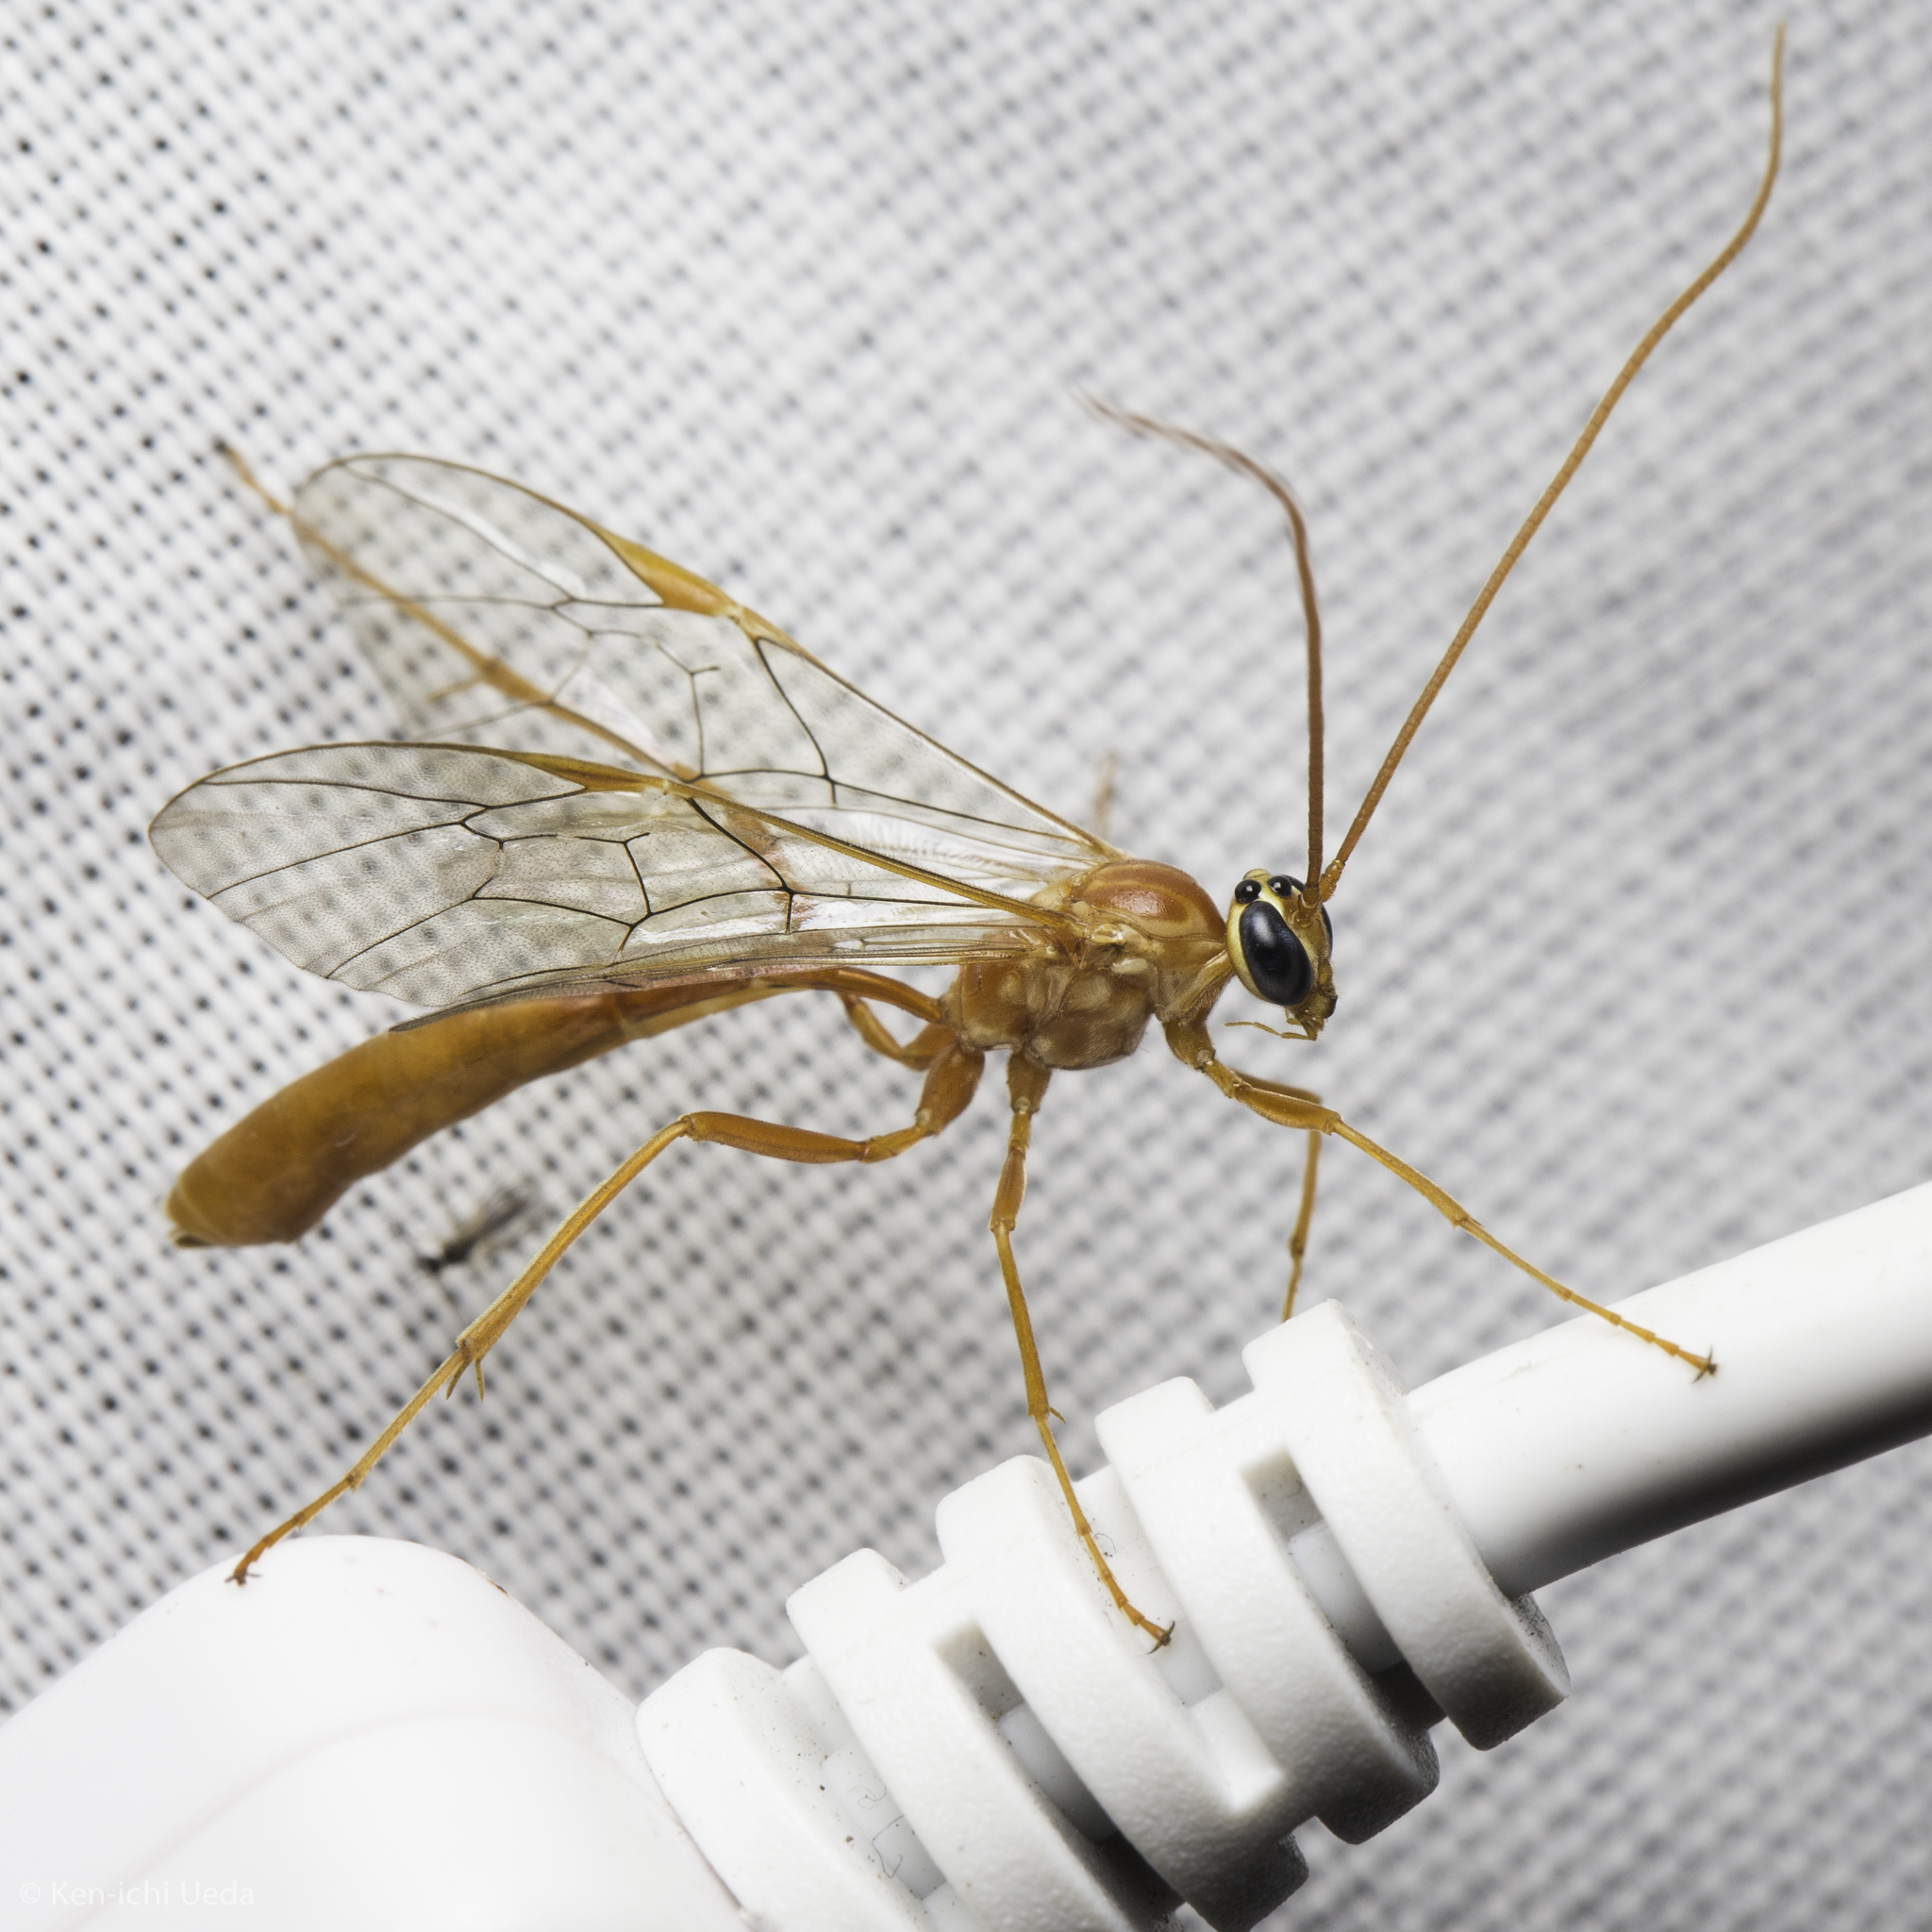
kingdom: Animalia
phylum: Arthropoda
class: Insecta
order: Hymenoptera
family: Ichneumonidae
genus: Ophion
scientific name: Ophion
